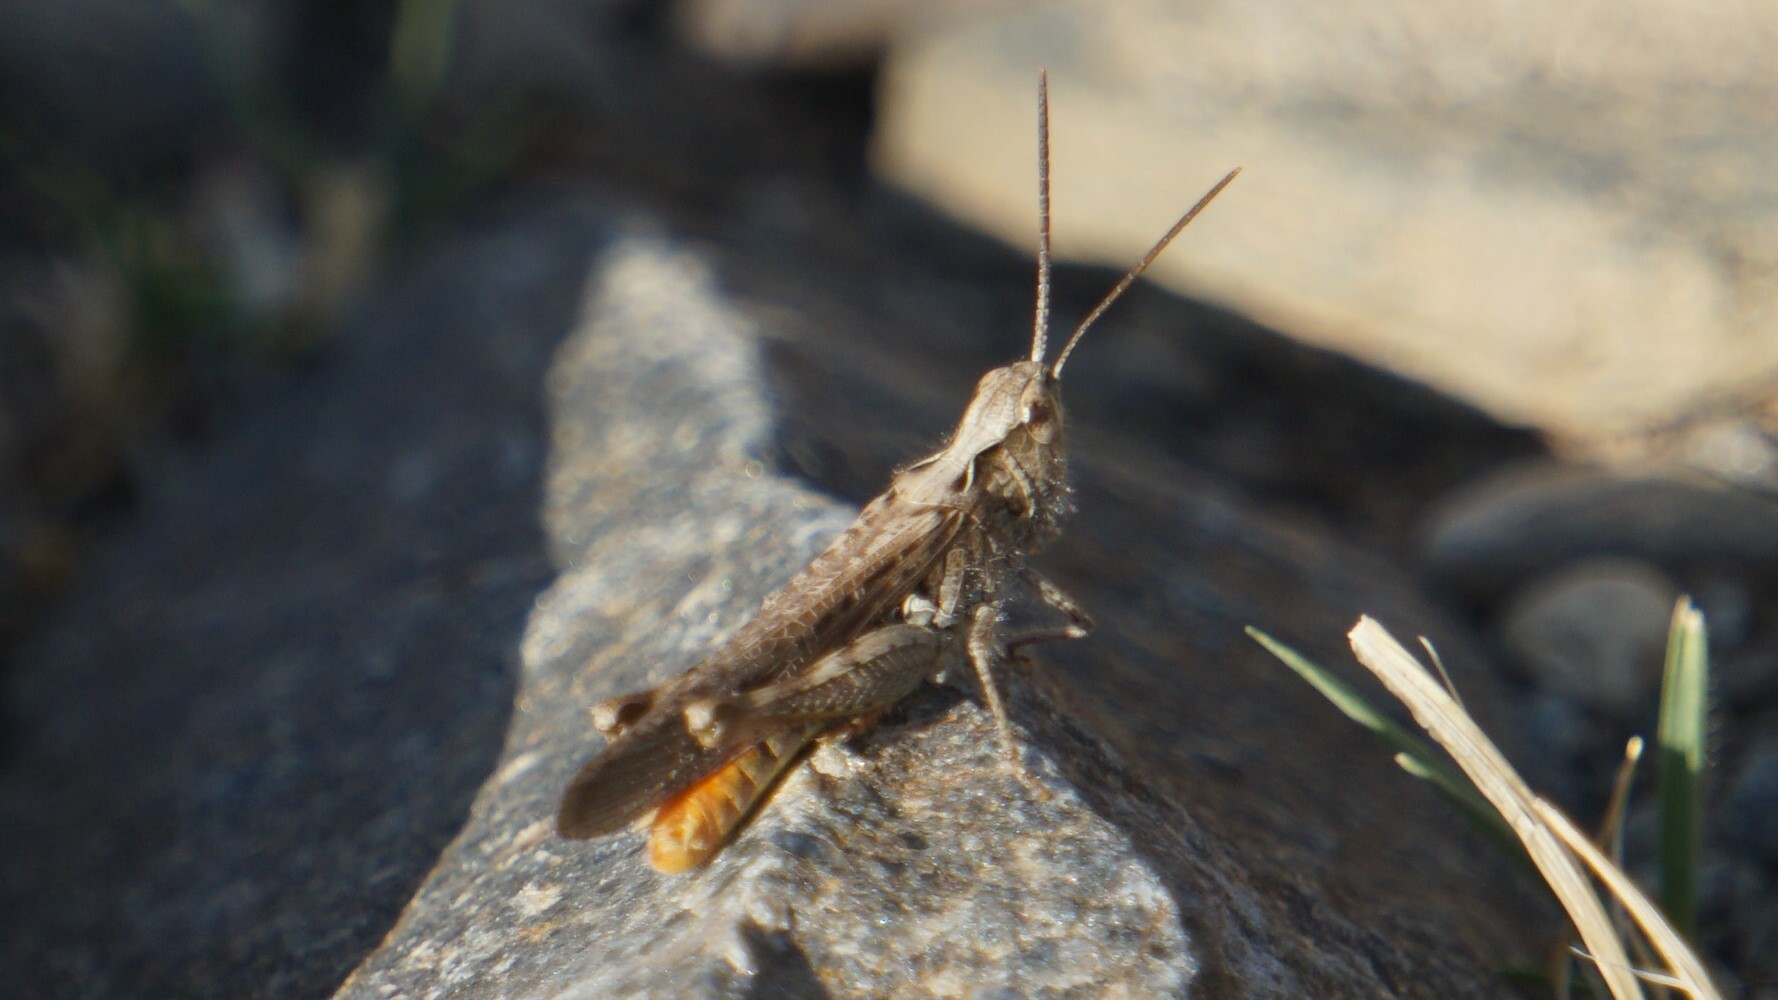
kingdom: Animalia
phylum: Arthropoda
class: Insecta
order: Orthoptera
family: Acrididae
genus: Chorthippus
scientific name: Chorthippus maritimus
